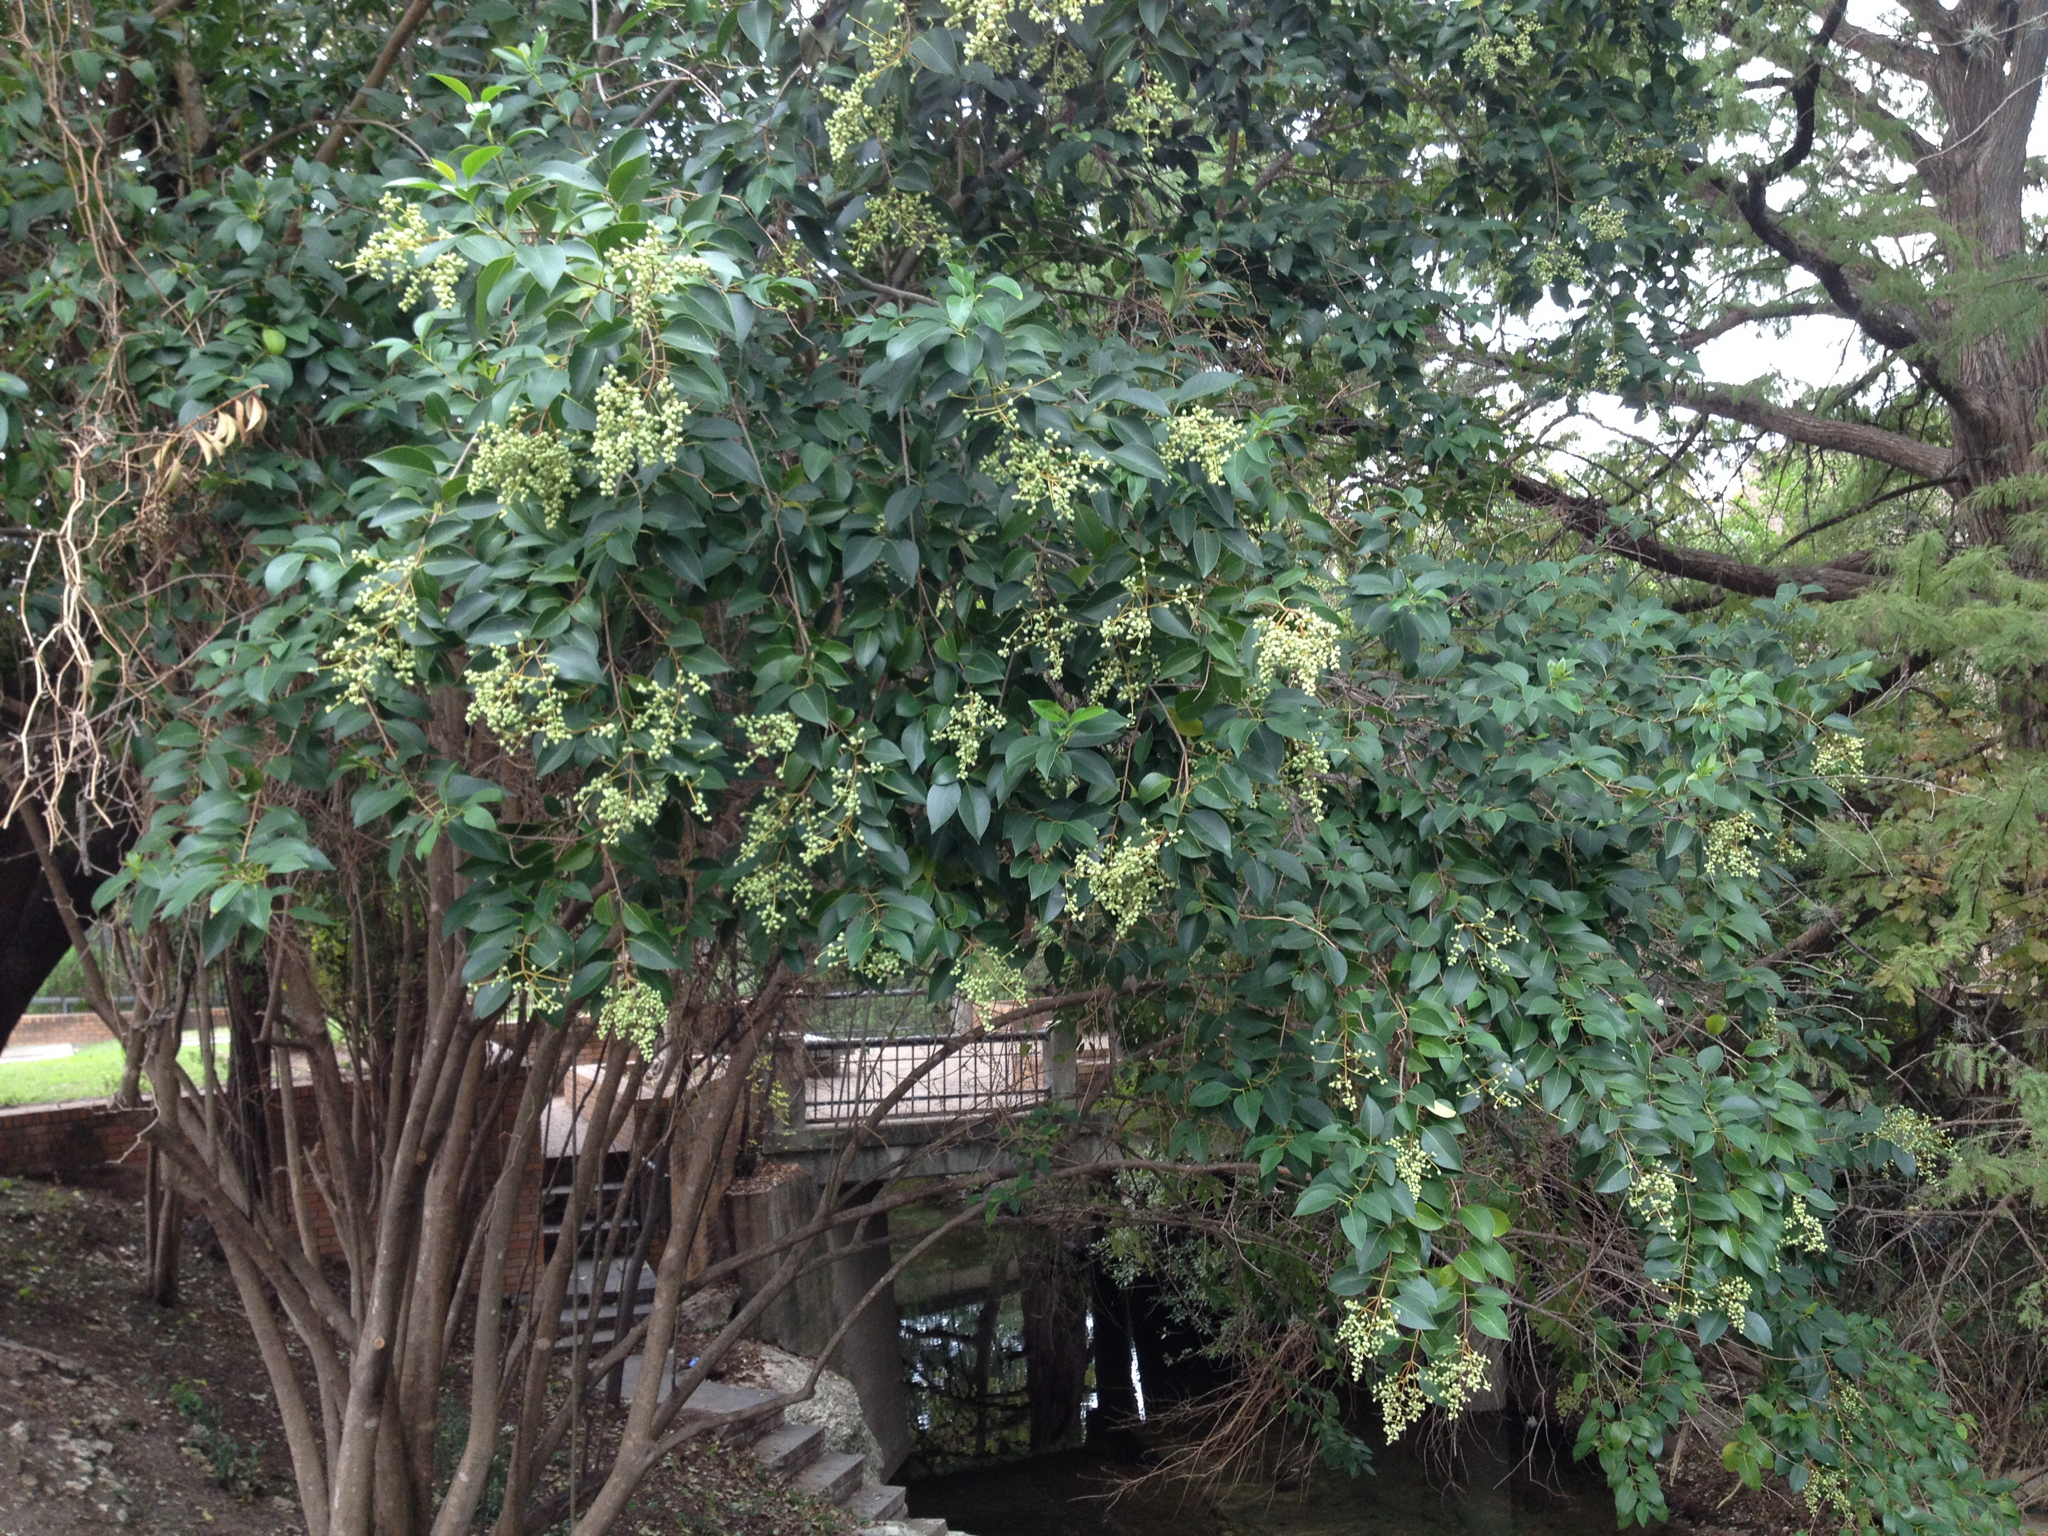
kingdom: Plantae
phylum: Tracheophyta
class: Magnoliopsida
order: Lamiales
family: Oleaceae
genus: Ligustrum
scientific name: Ligustrum lucidum
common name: Glossy privet
